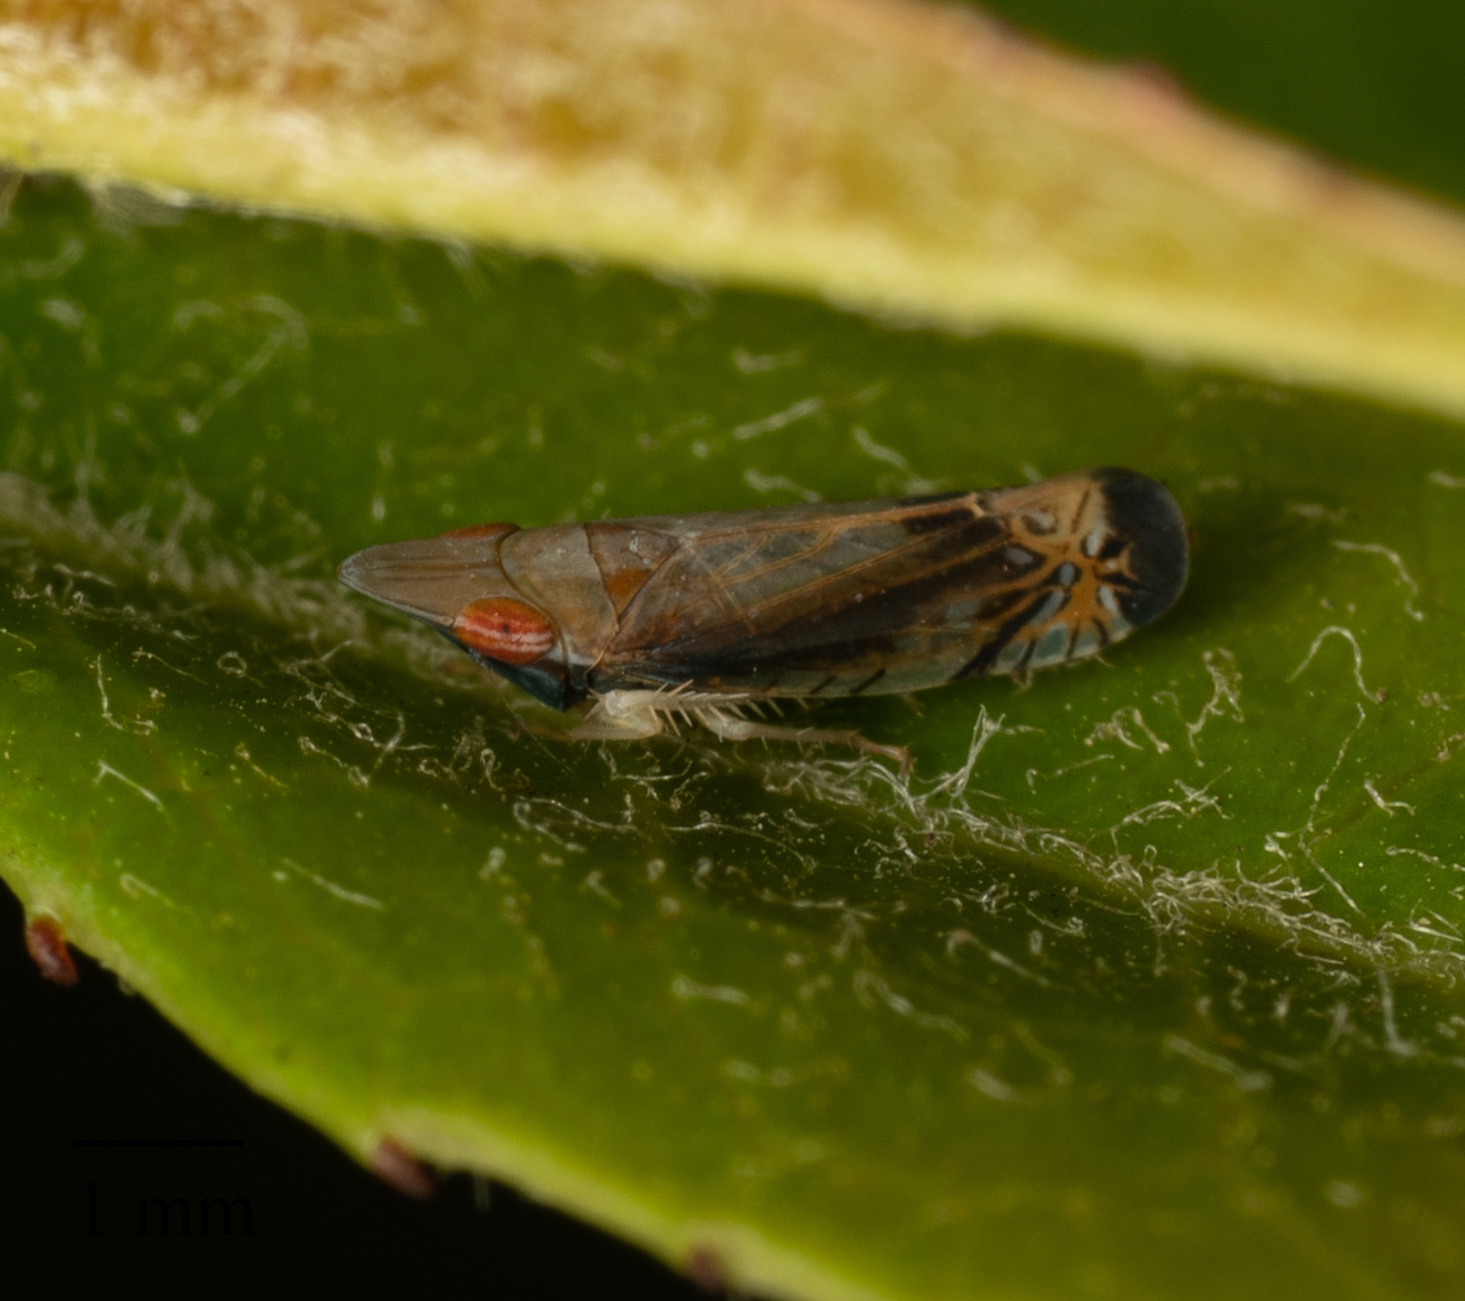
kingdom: Animalia
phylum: Arthropoda
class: Insecta
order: Hemiptera
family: Cicadellidae
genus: Scaphytopius
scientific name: Scaphytopius majestus
